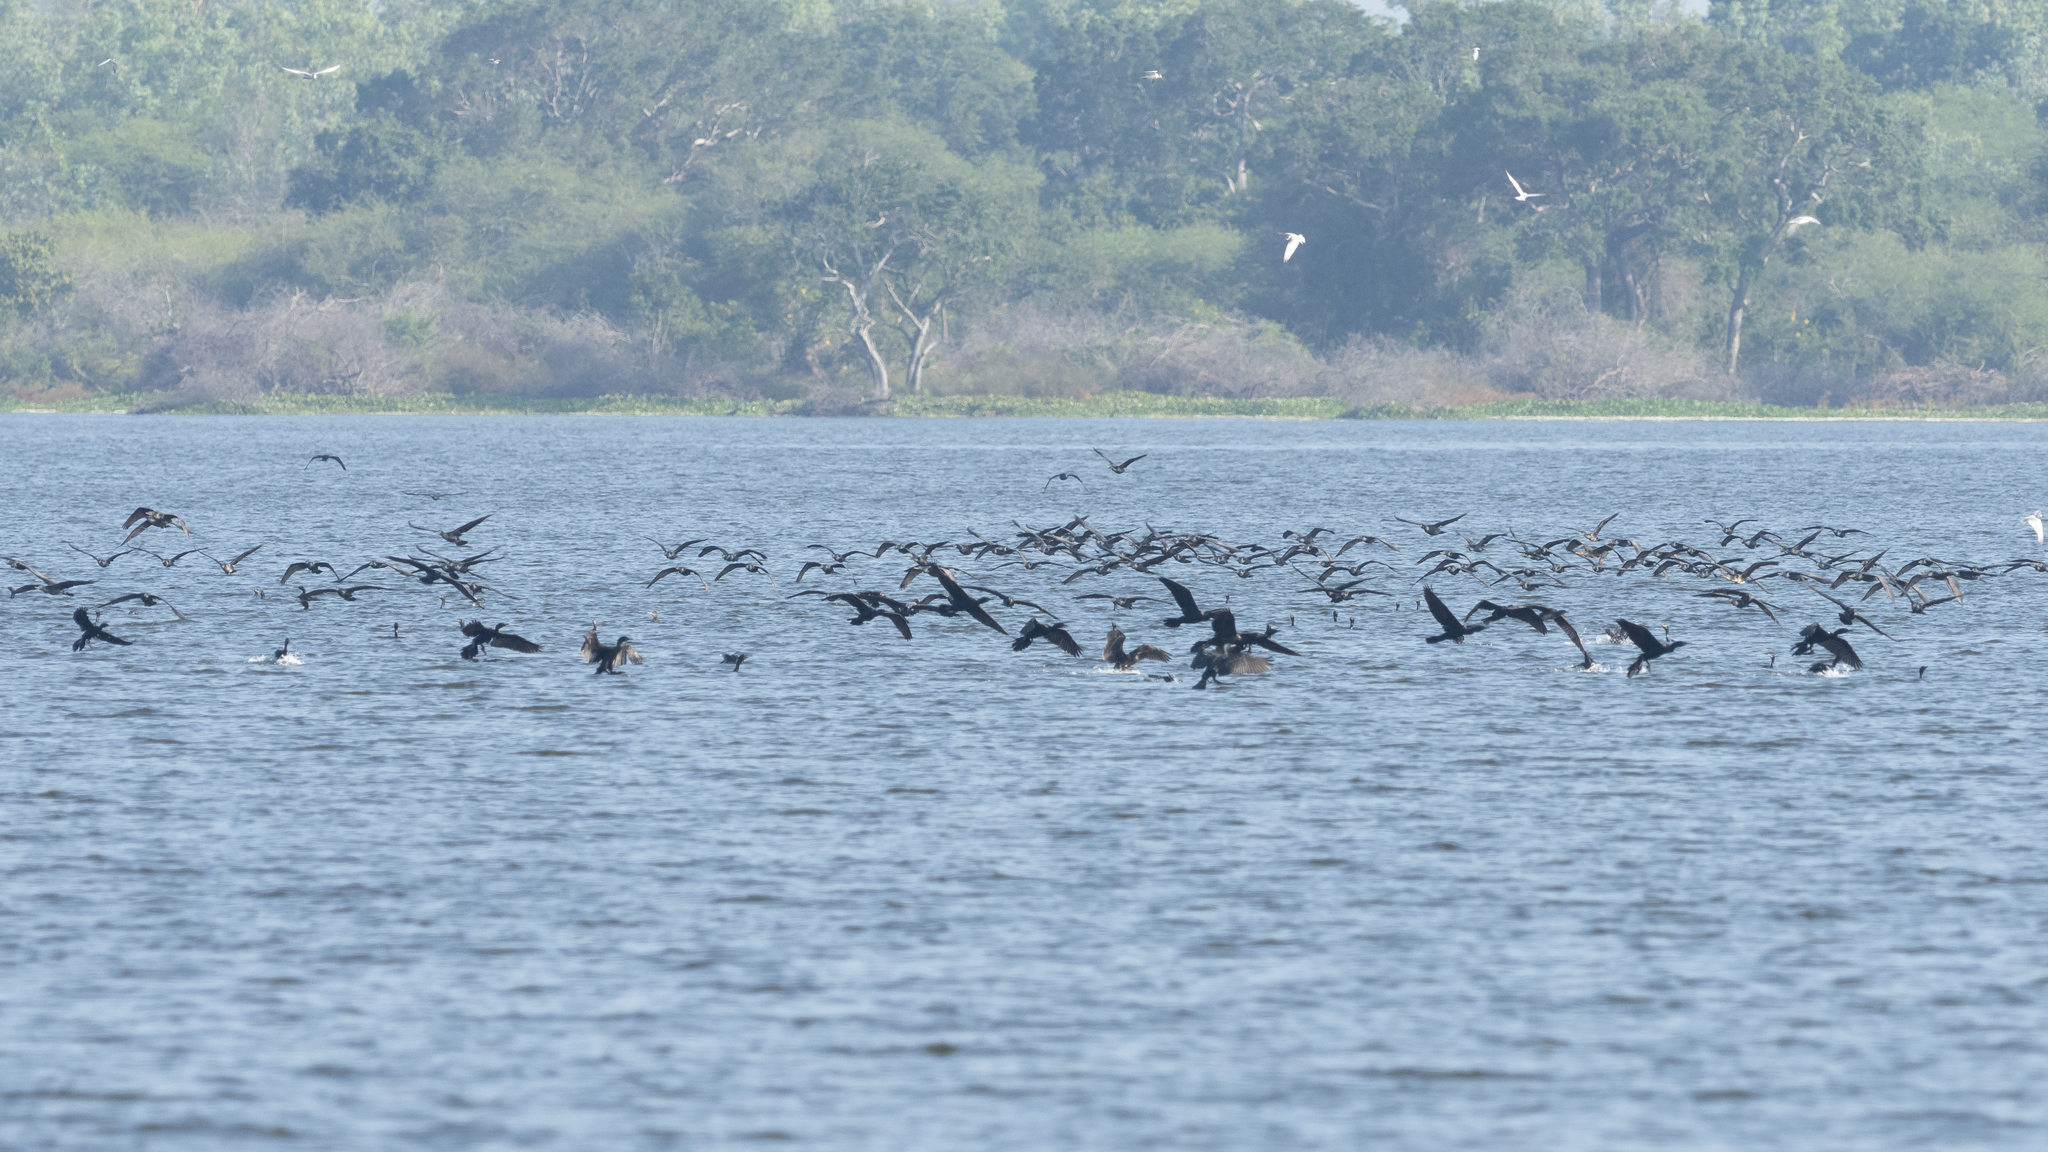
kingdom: Animalia
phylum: Chordata
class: Aves
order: Suliformes
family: Phalacrocoracidae
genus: Phalacrocorax
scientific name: Phalacrocorax fuscicollis
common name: Indian cormorant
